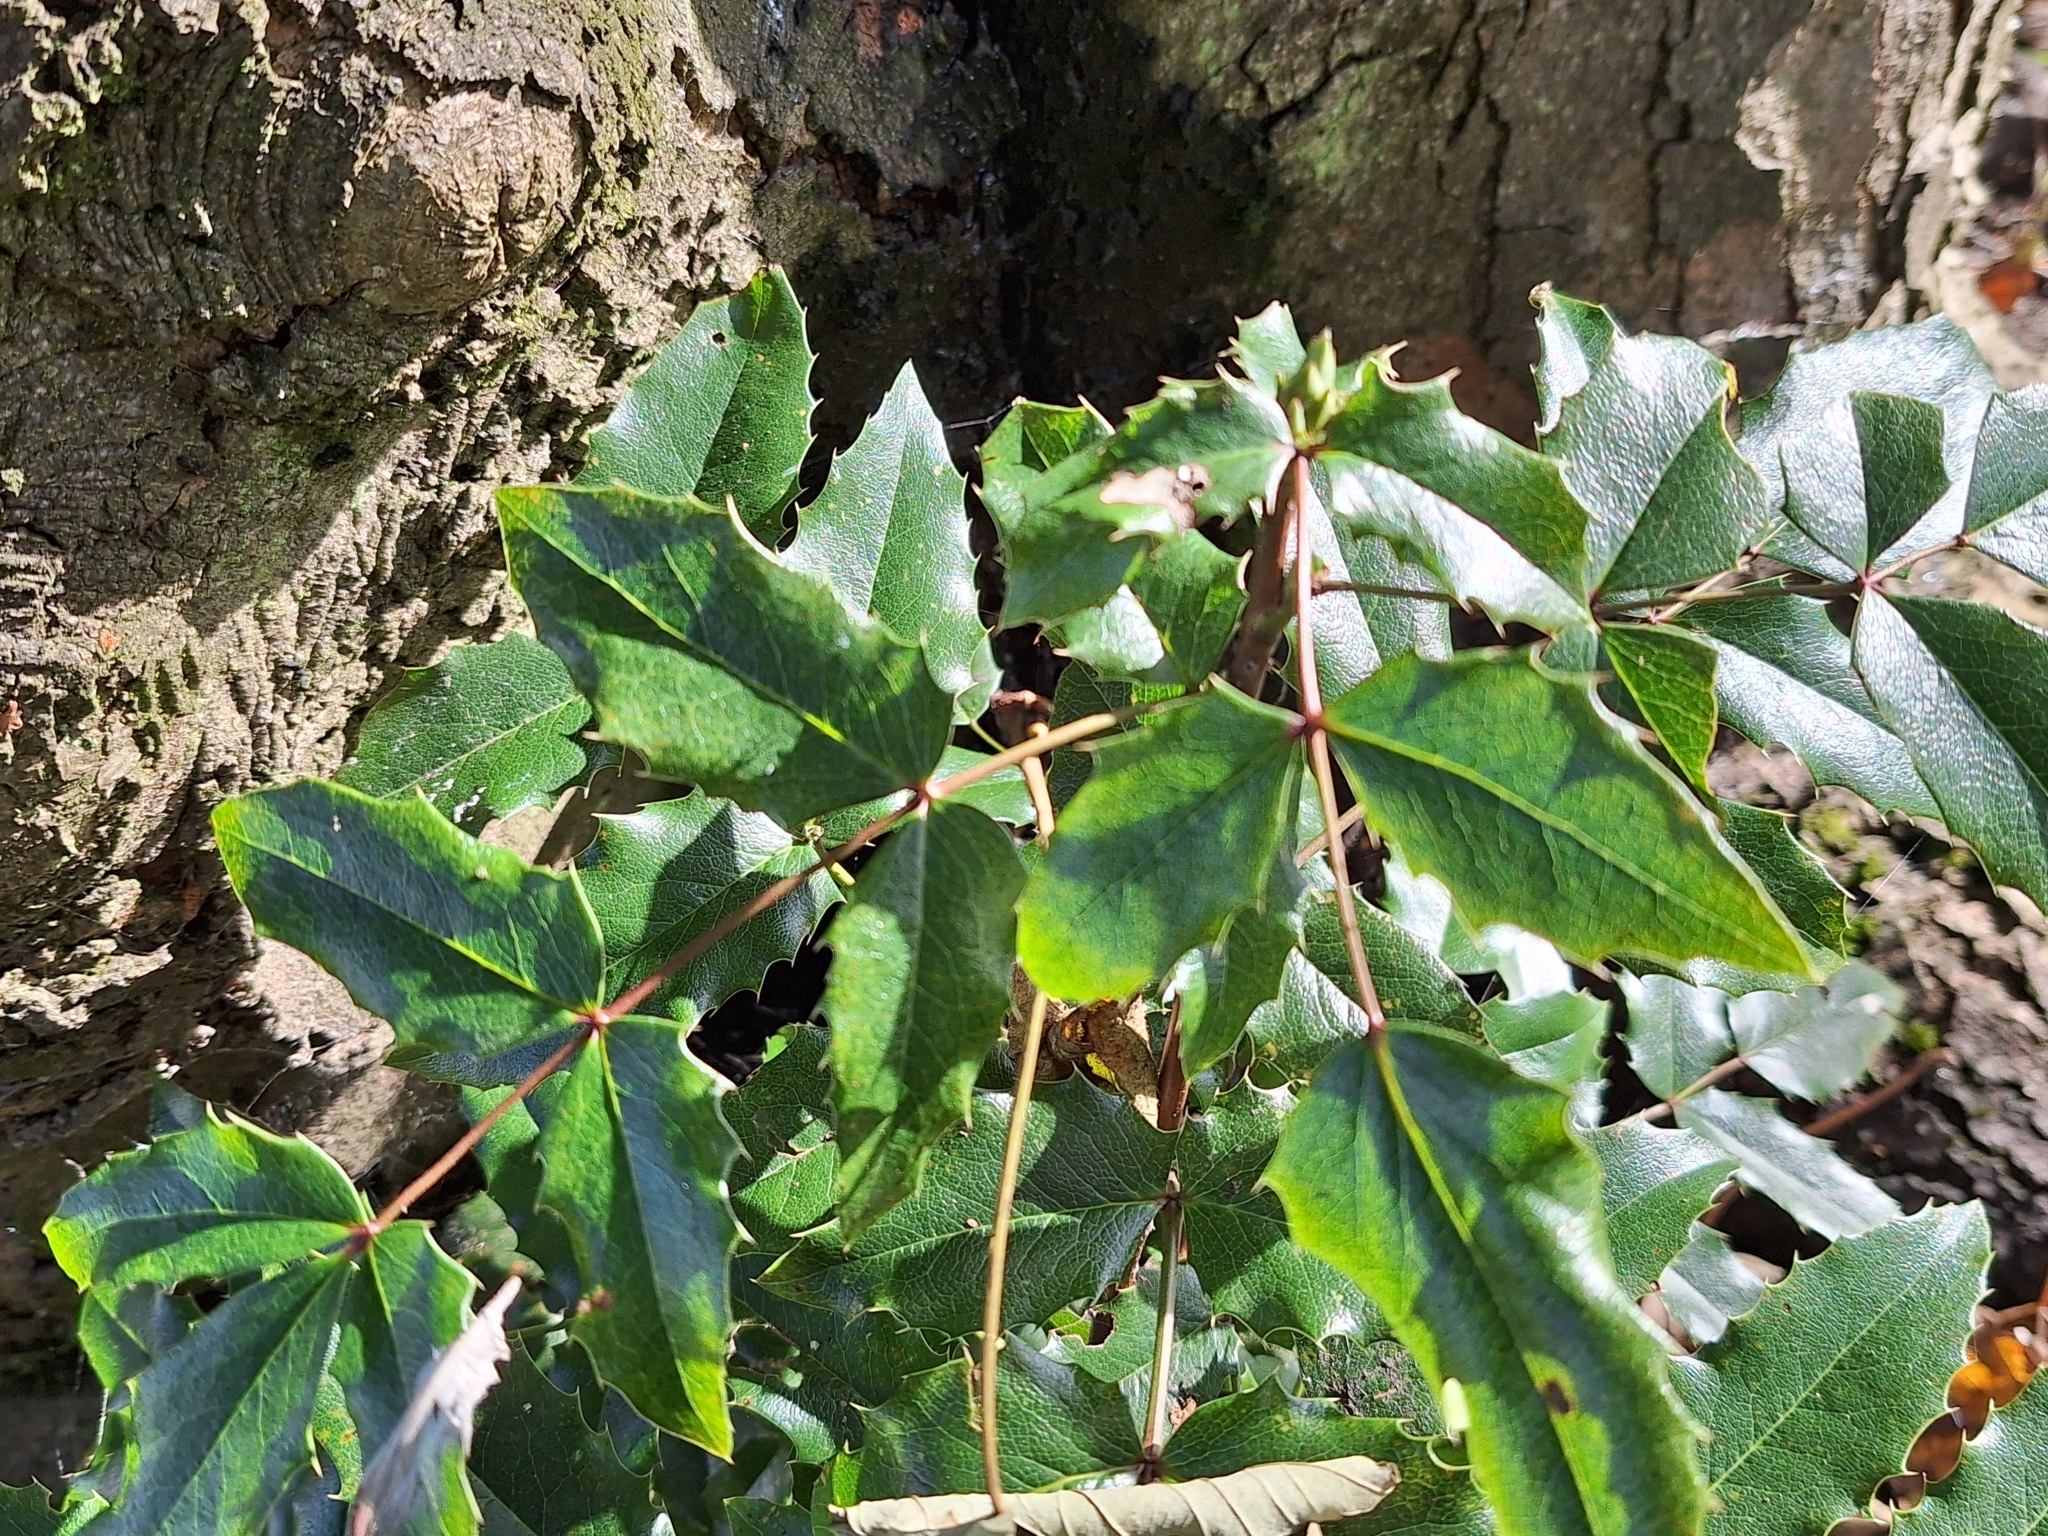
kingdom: Plantae
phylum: Tracheophyta
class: Magnoliopsida
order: Ranunculales
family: Berberidaceae
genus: Mahonia
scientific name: Mahonia aquifolium
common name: Oregon-grape
